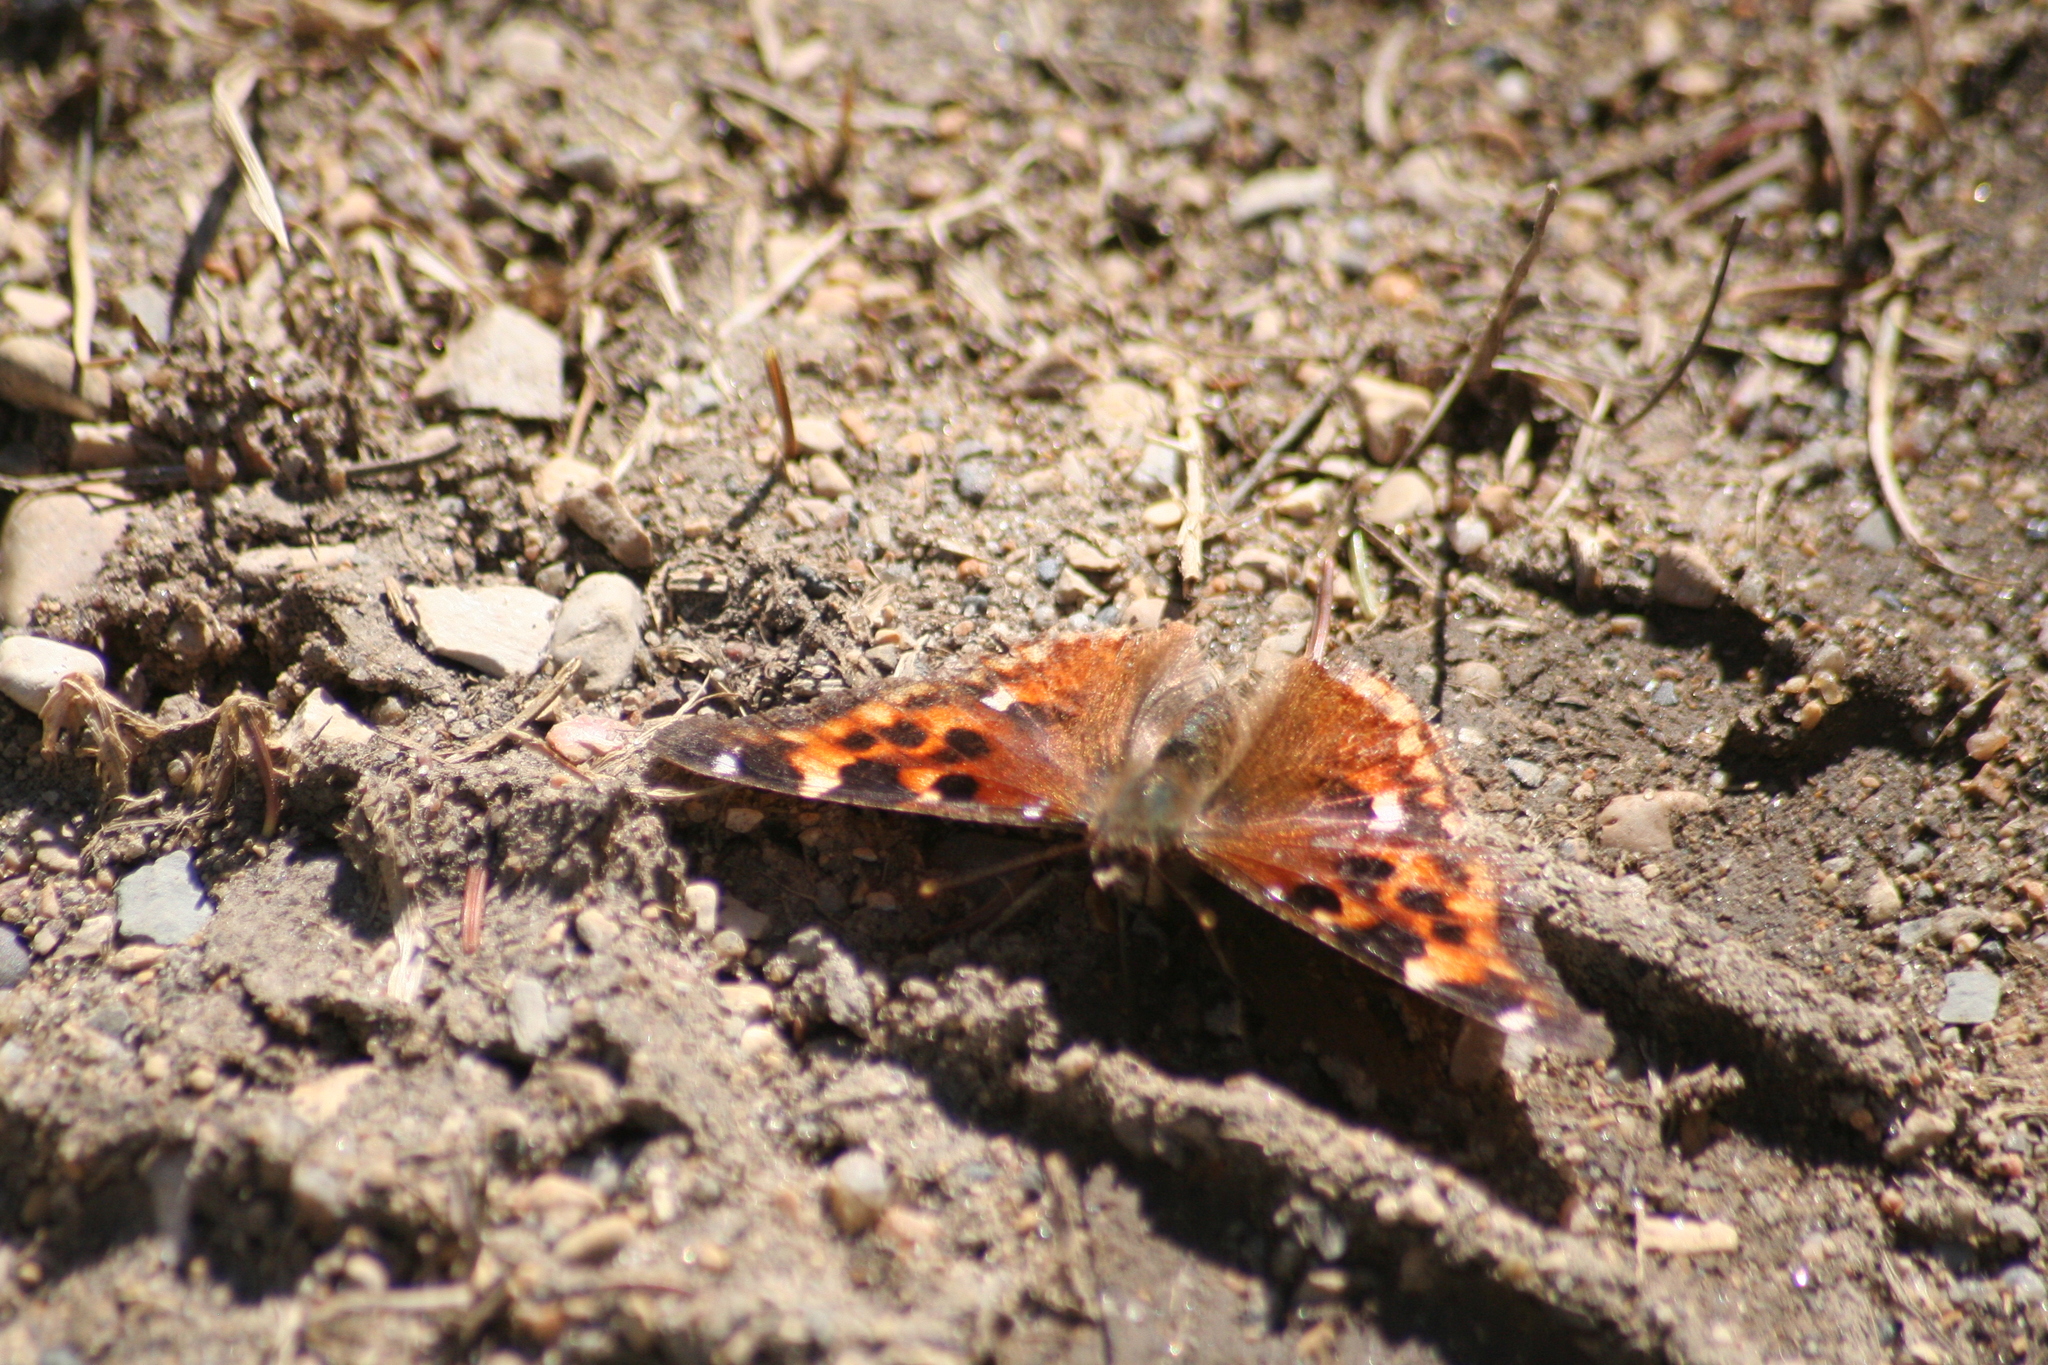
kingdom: Animalia
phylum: Arthropoda
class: Insecta
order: Lepidoptera
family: Nymphalidae
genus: Polygonia
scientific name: Polygonia vaualbum
